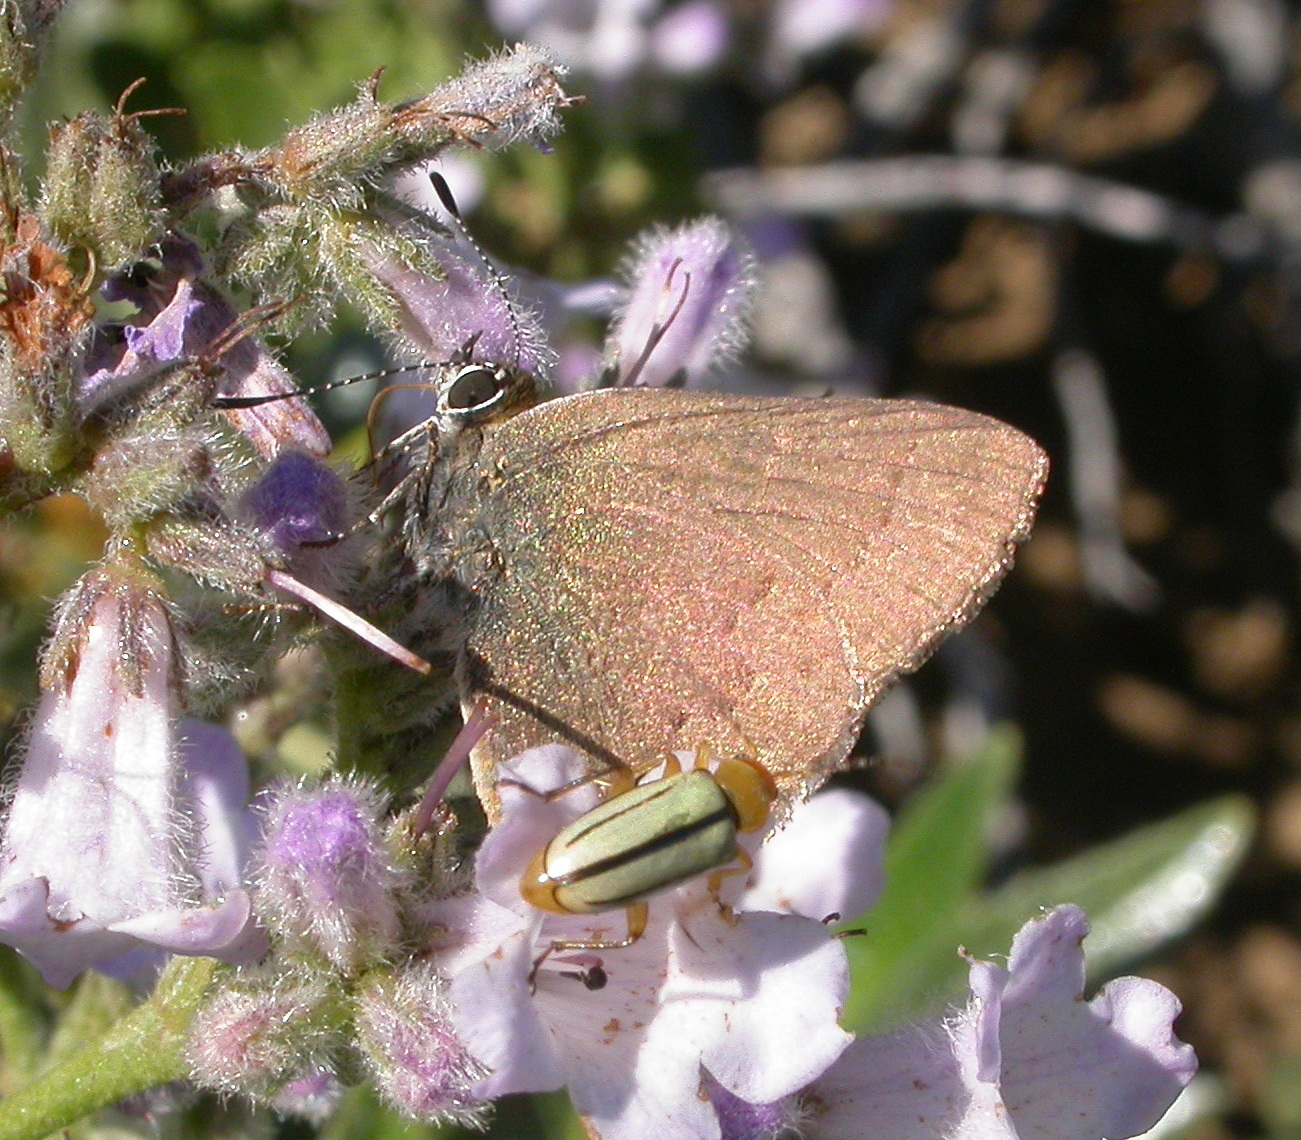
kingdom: Animalia
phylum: Arthropoda
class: Insecta
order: Lepidoptera
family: Lycaenidae
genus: Strymon
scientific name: Strymon saepium
